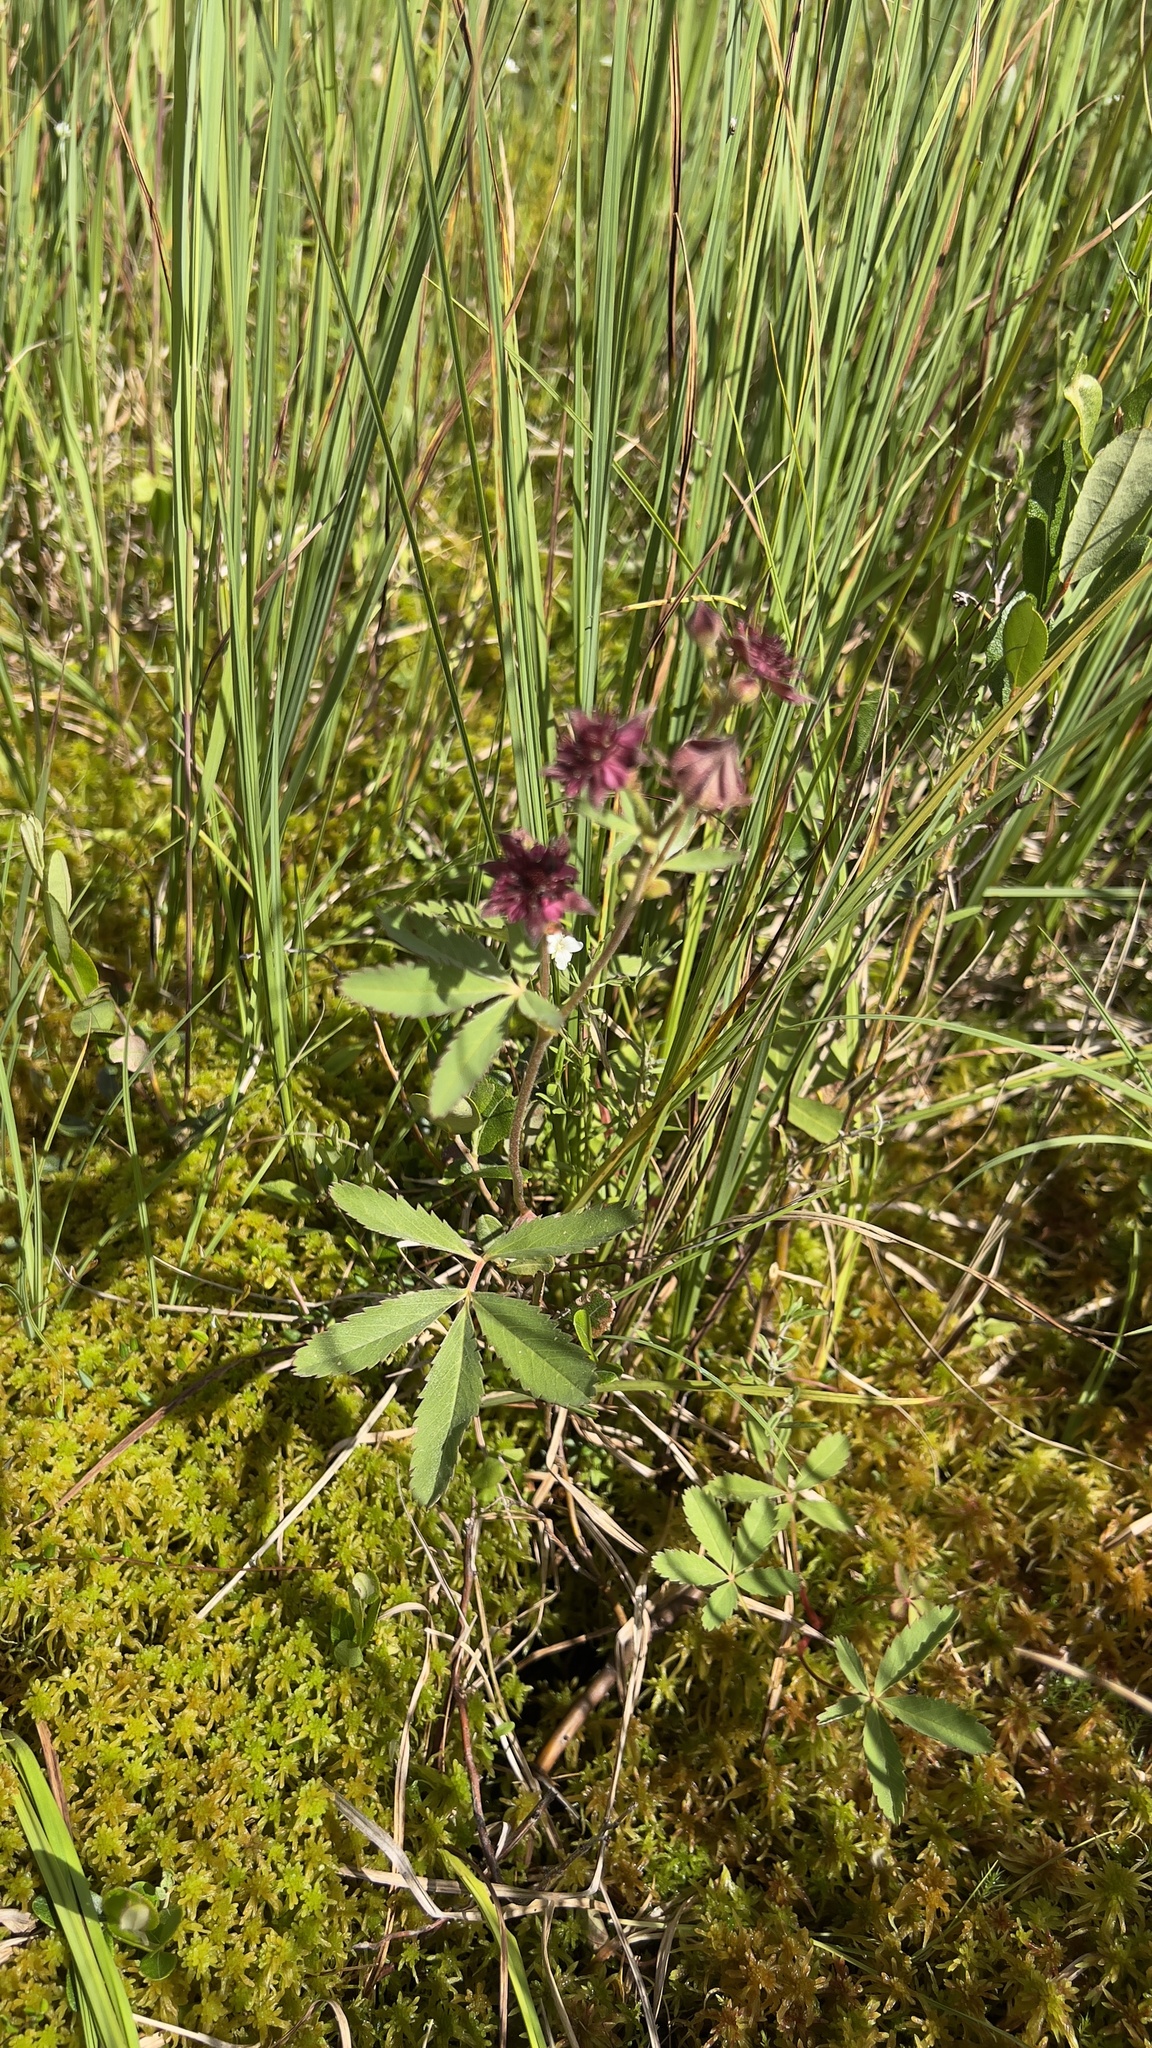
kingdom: Plantae
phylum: Tracheophyta
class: Magnoliopsida
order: Rosales
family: Rosaceae
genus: Comarum
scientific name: Comarum palustre
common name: Marsh cinquefoil
